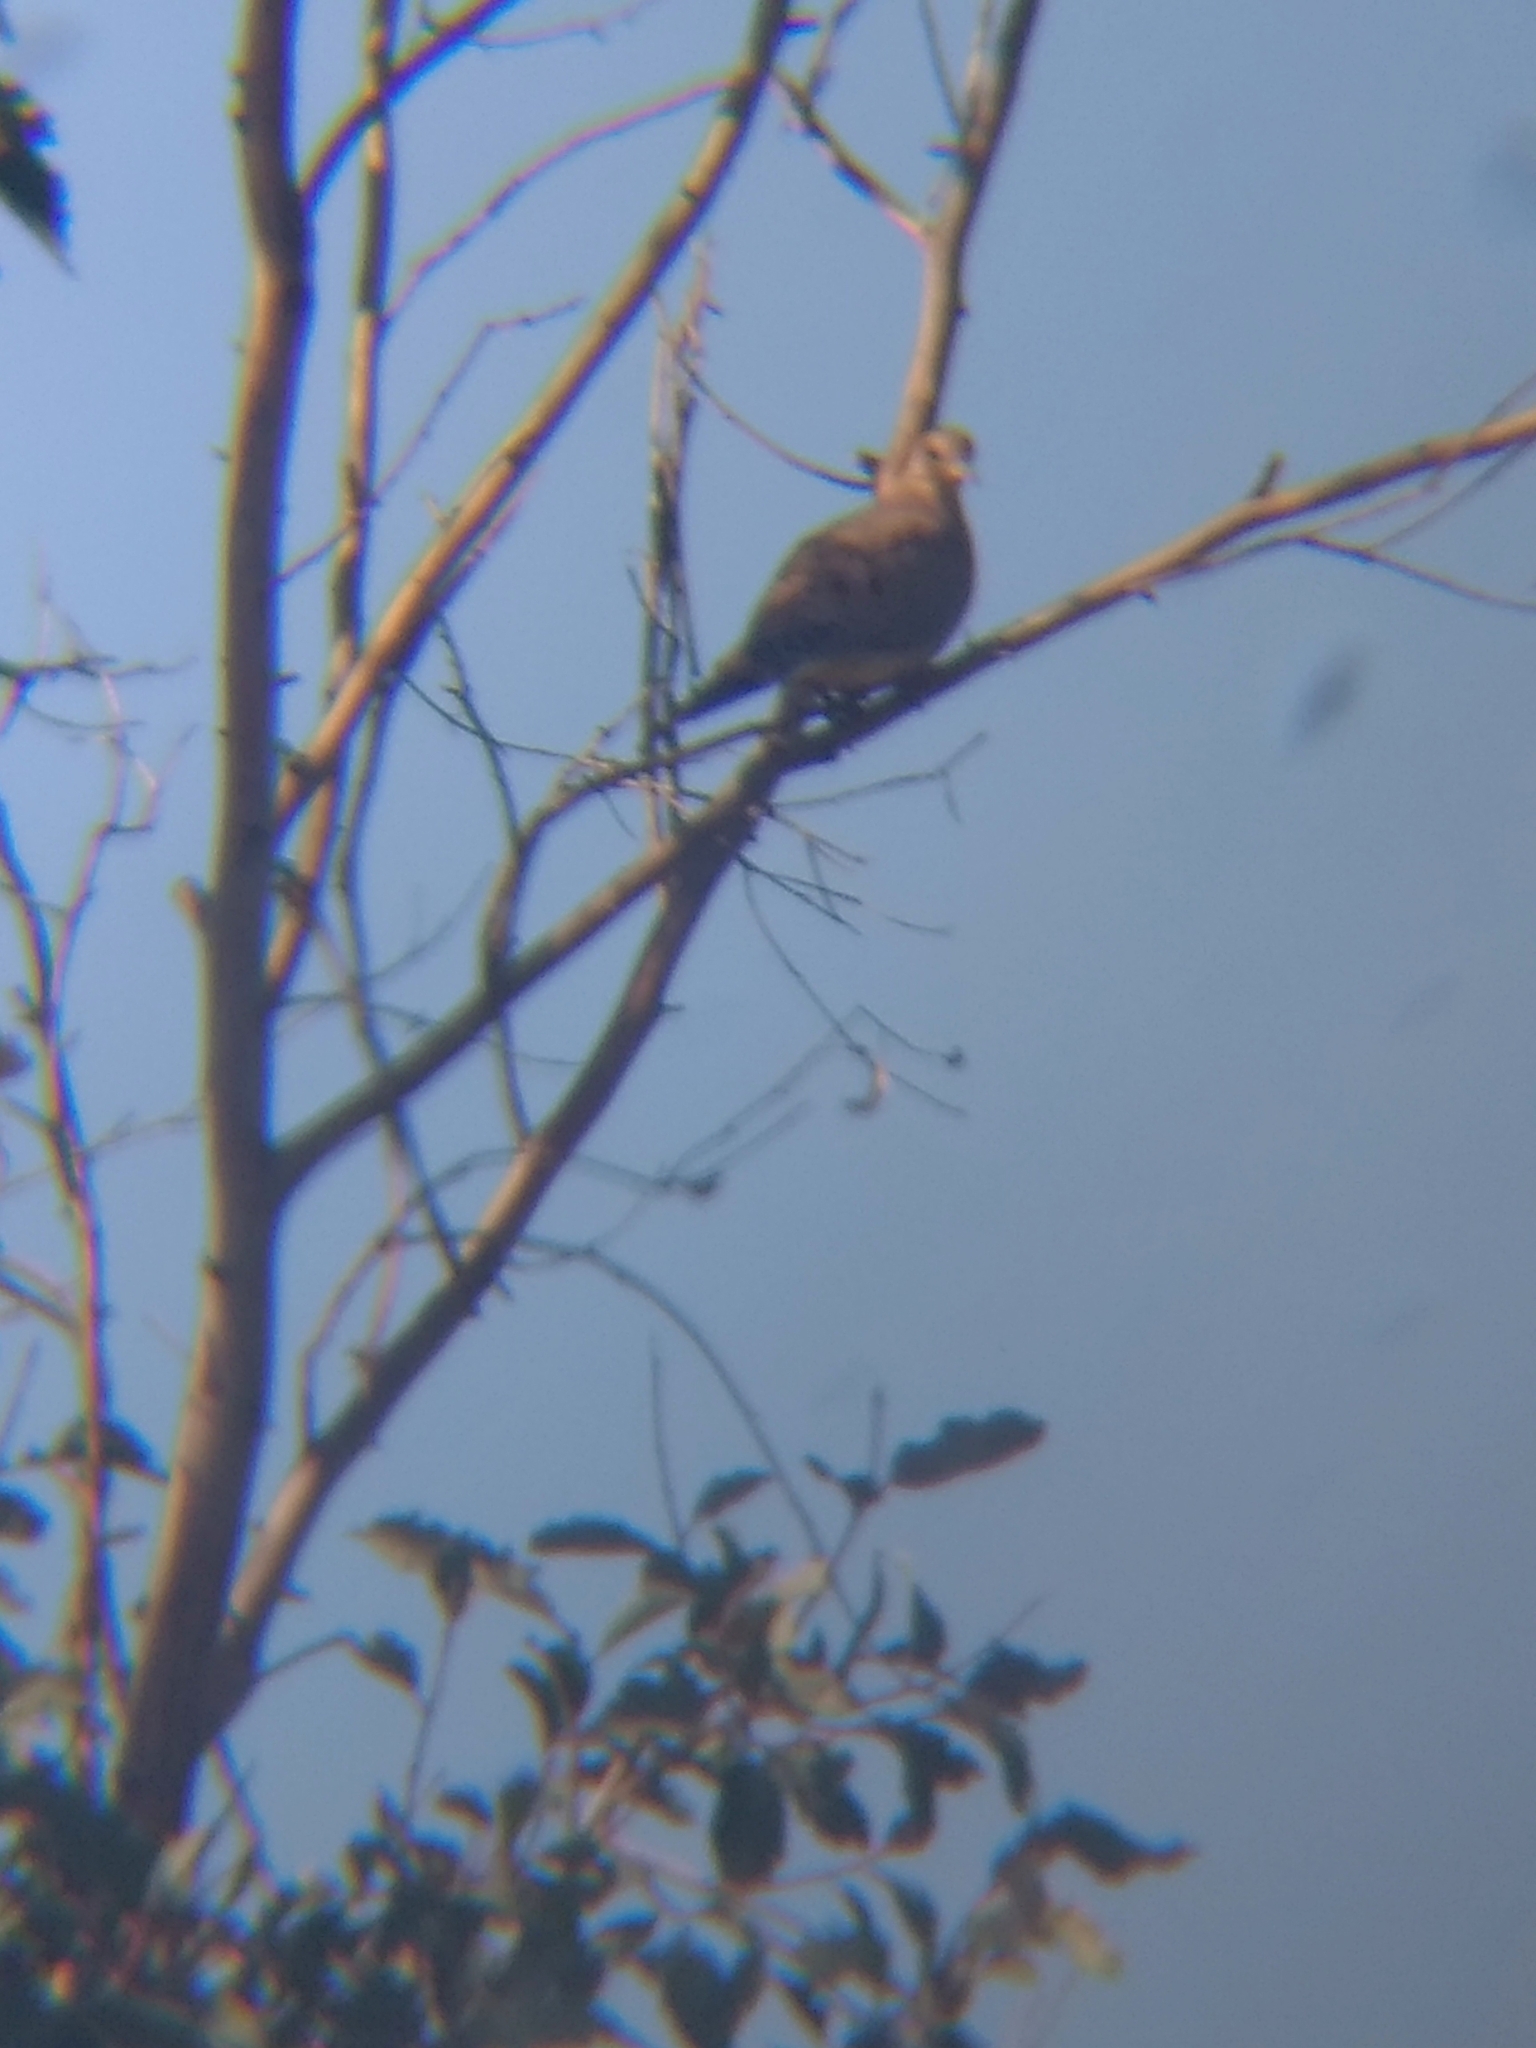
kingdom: Animalia
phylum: Chordata
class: Aves
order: Columbiformes
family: Columbidae
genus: Zenaida
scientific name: Zenaida macroura
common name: Mourning dove
